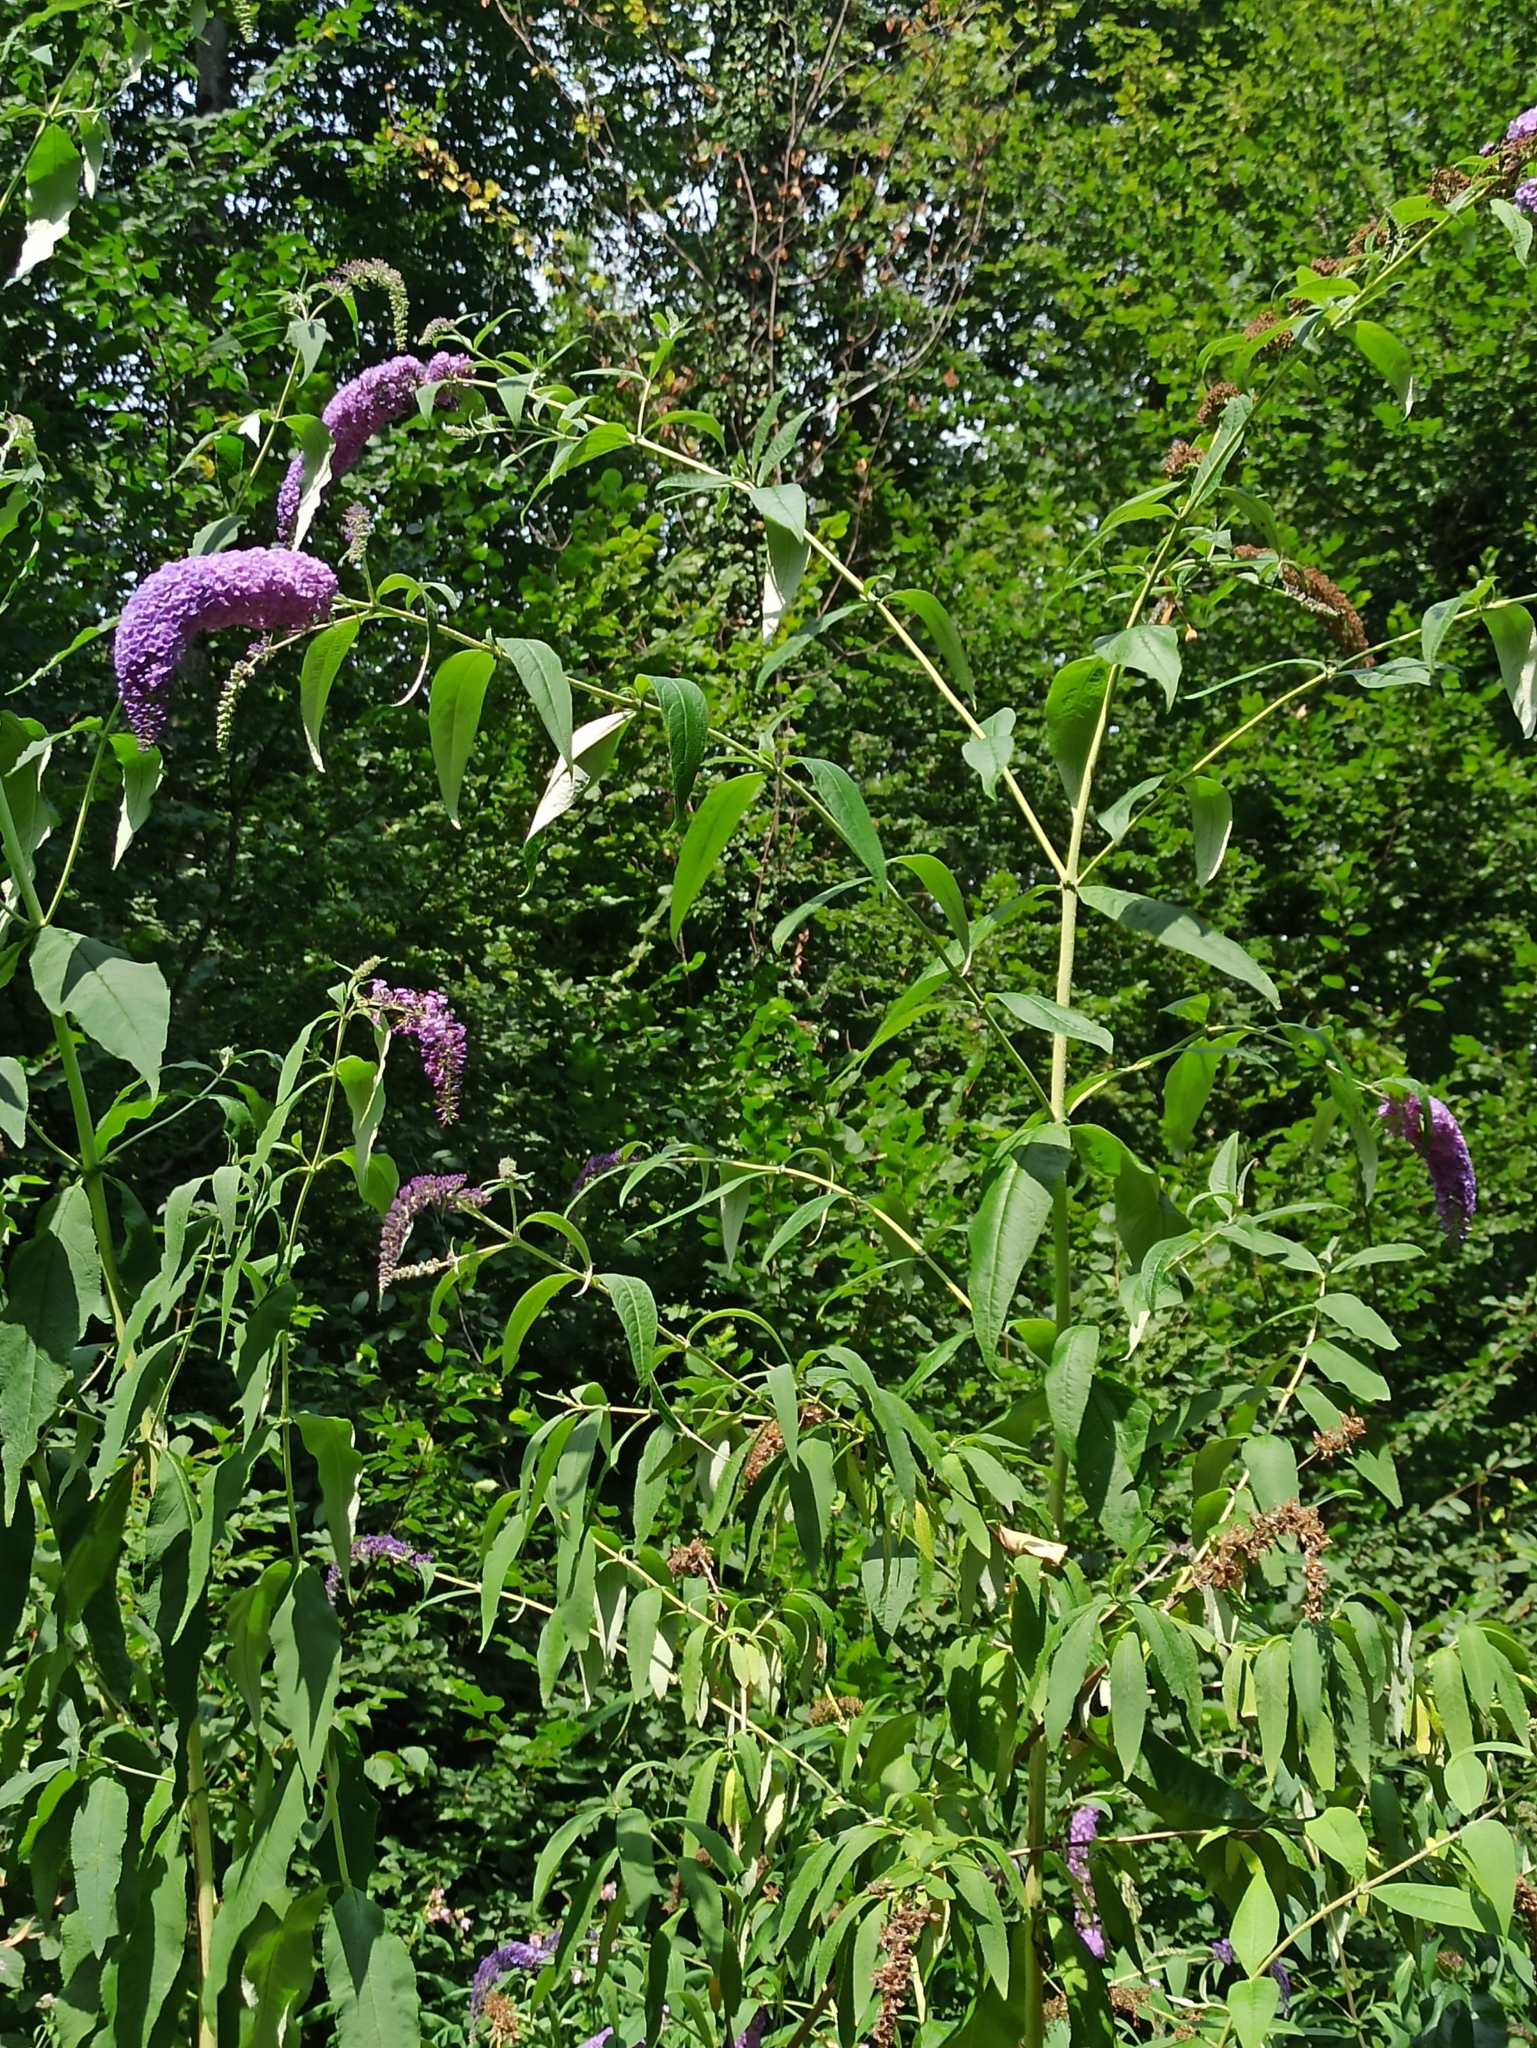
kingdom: Plantae
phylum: Tracheophyta
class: Magnoliopsida
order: Lamiales
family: Scrophulariaceae
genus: Buddleja
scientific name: Buddleja davidii
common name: Butterfly-bush
